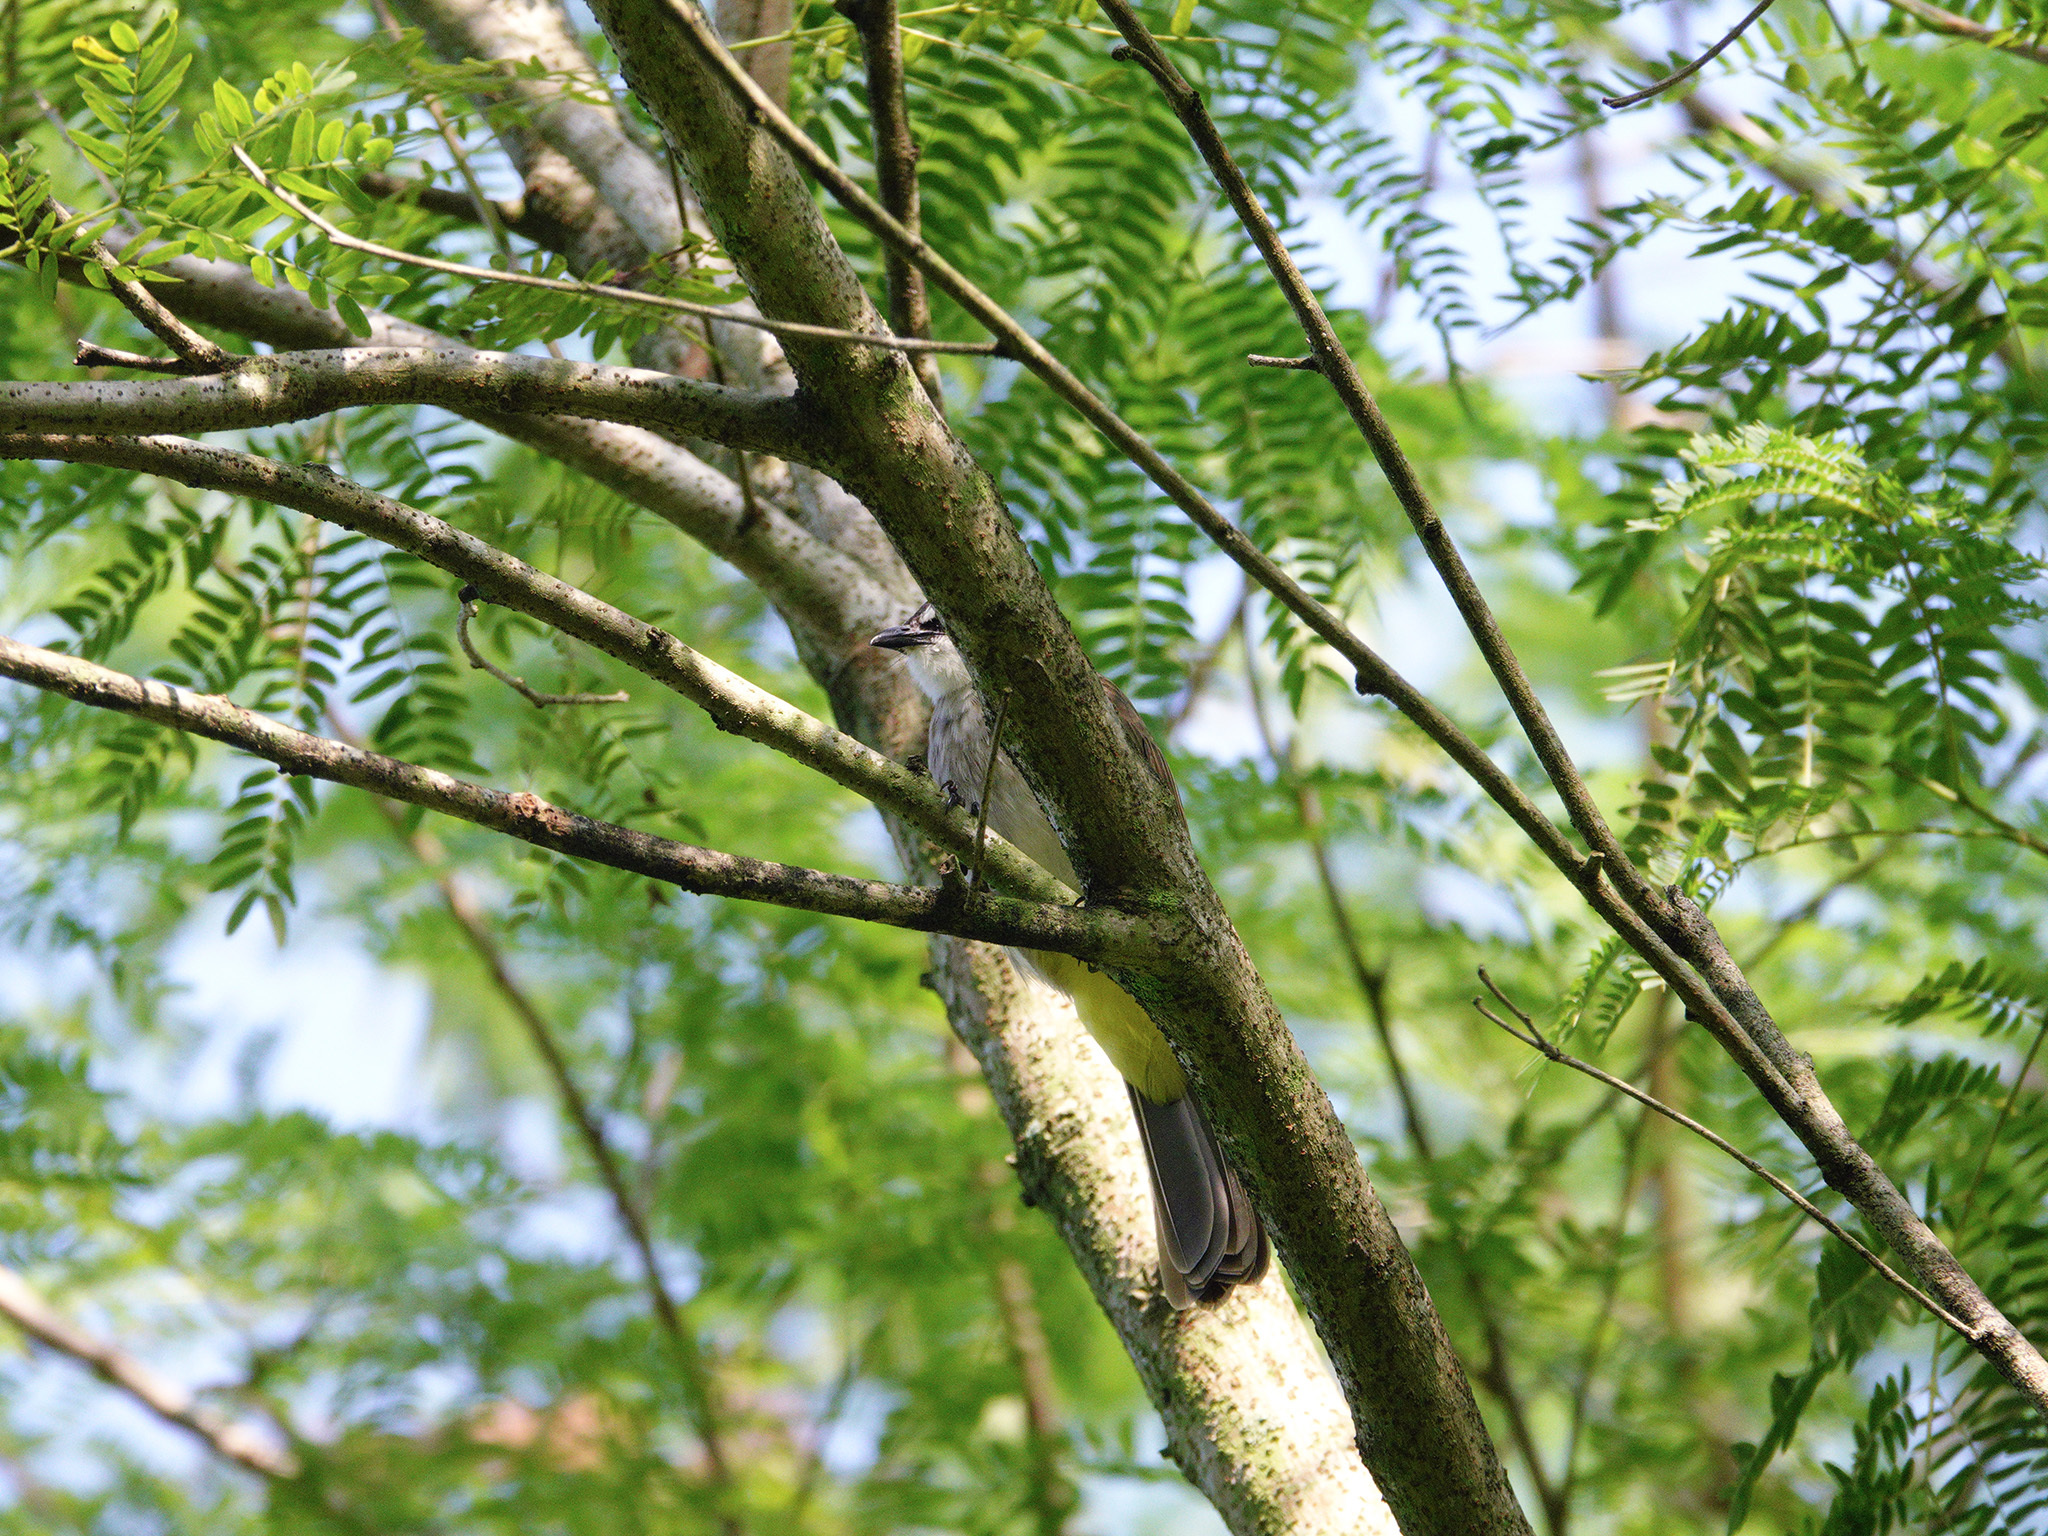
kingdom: Animalia
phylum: Chordata
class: Aves
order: Passeriformes
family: Pycnonotidae
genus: Pycnonotus
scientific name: Pycnonotus goiavier
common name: Yellow-vented bulbul
